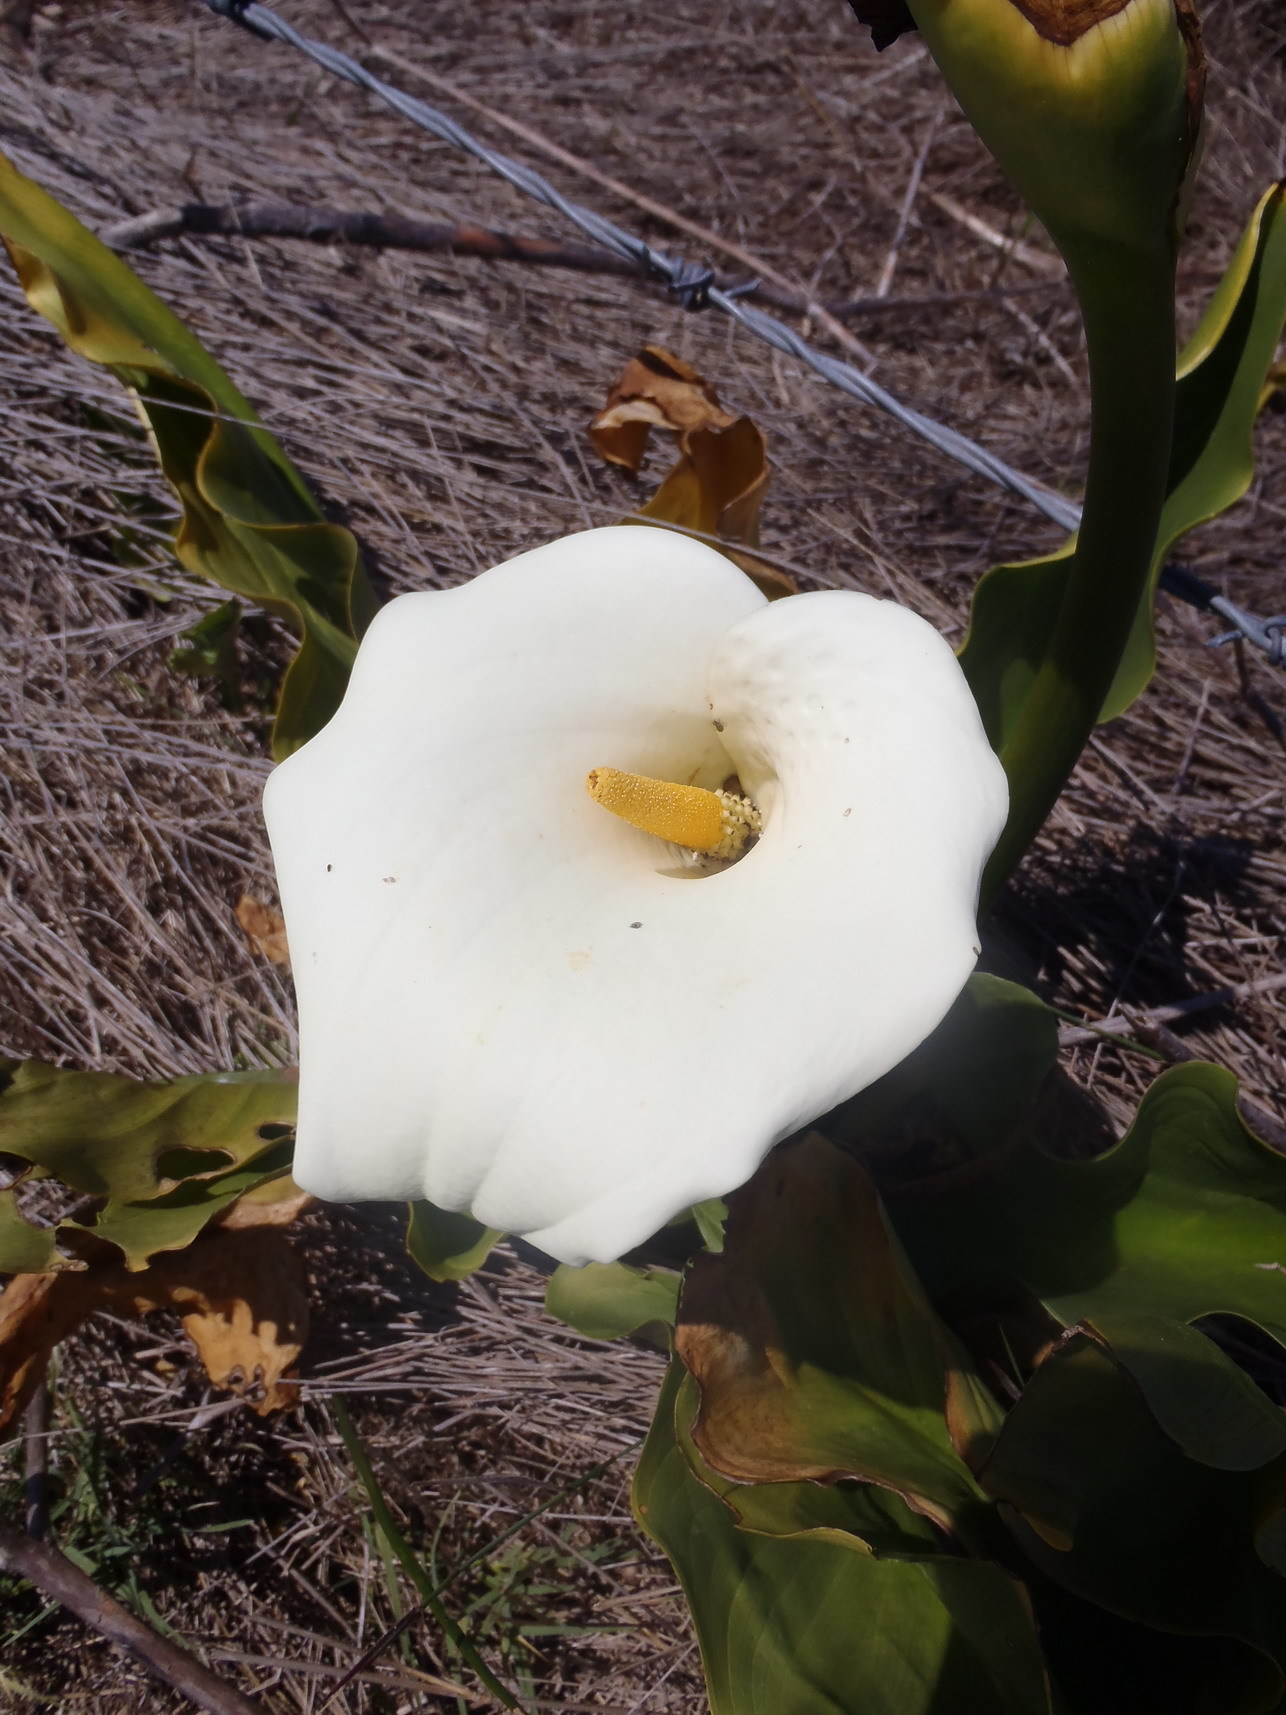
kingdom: Plantae
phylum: Tracheophyta
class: Liliopsida
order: Alismatales
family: Araceae
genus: Zantedeschia
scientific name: Zantedeschia aethiopica
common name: Altar-lily
